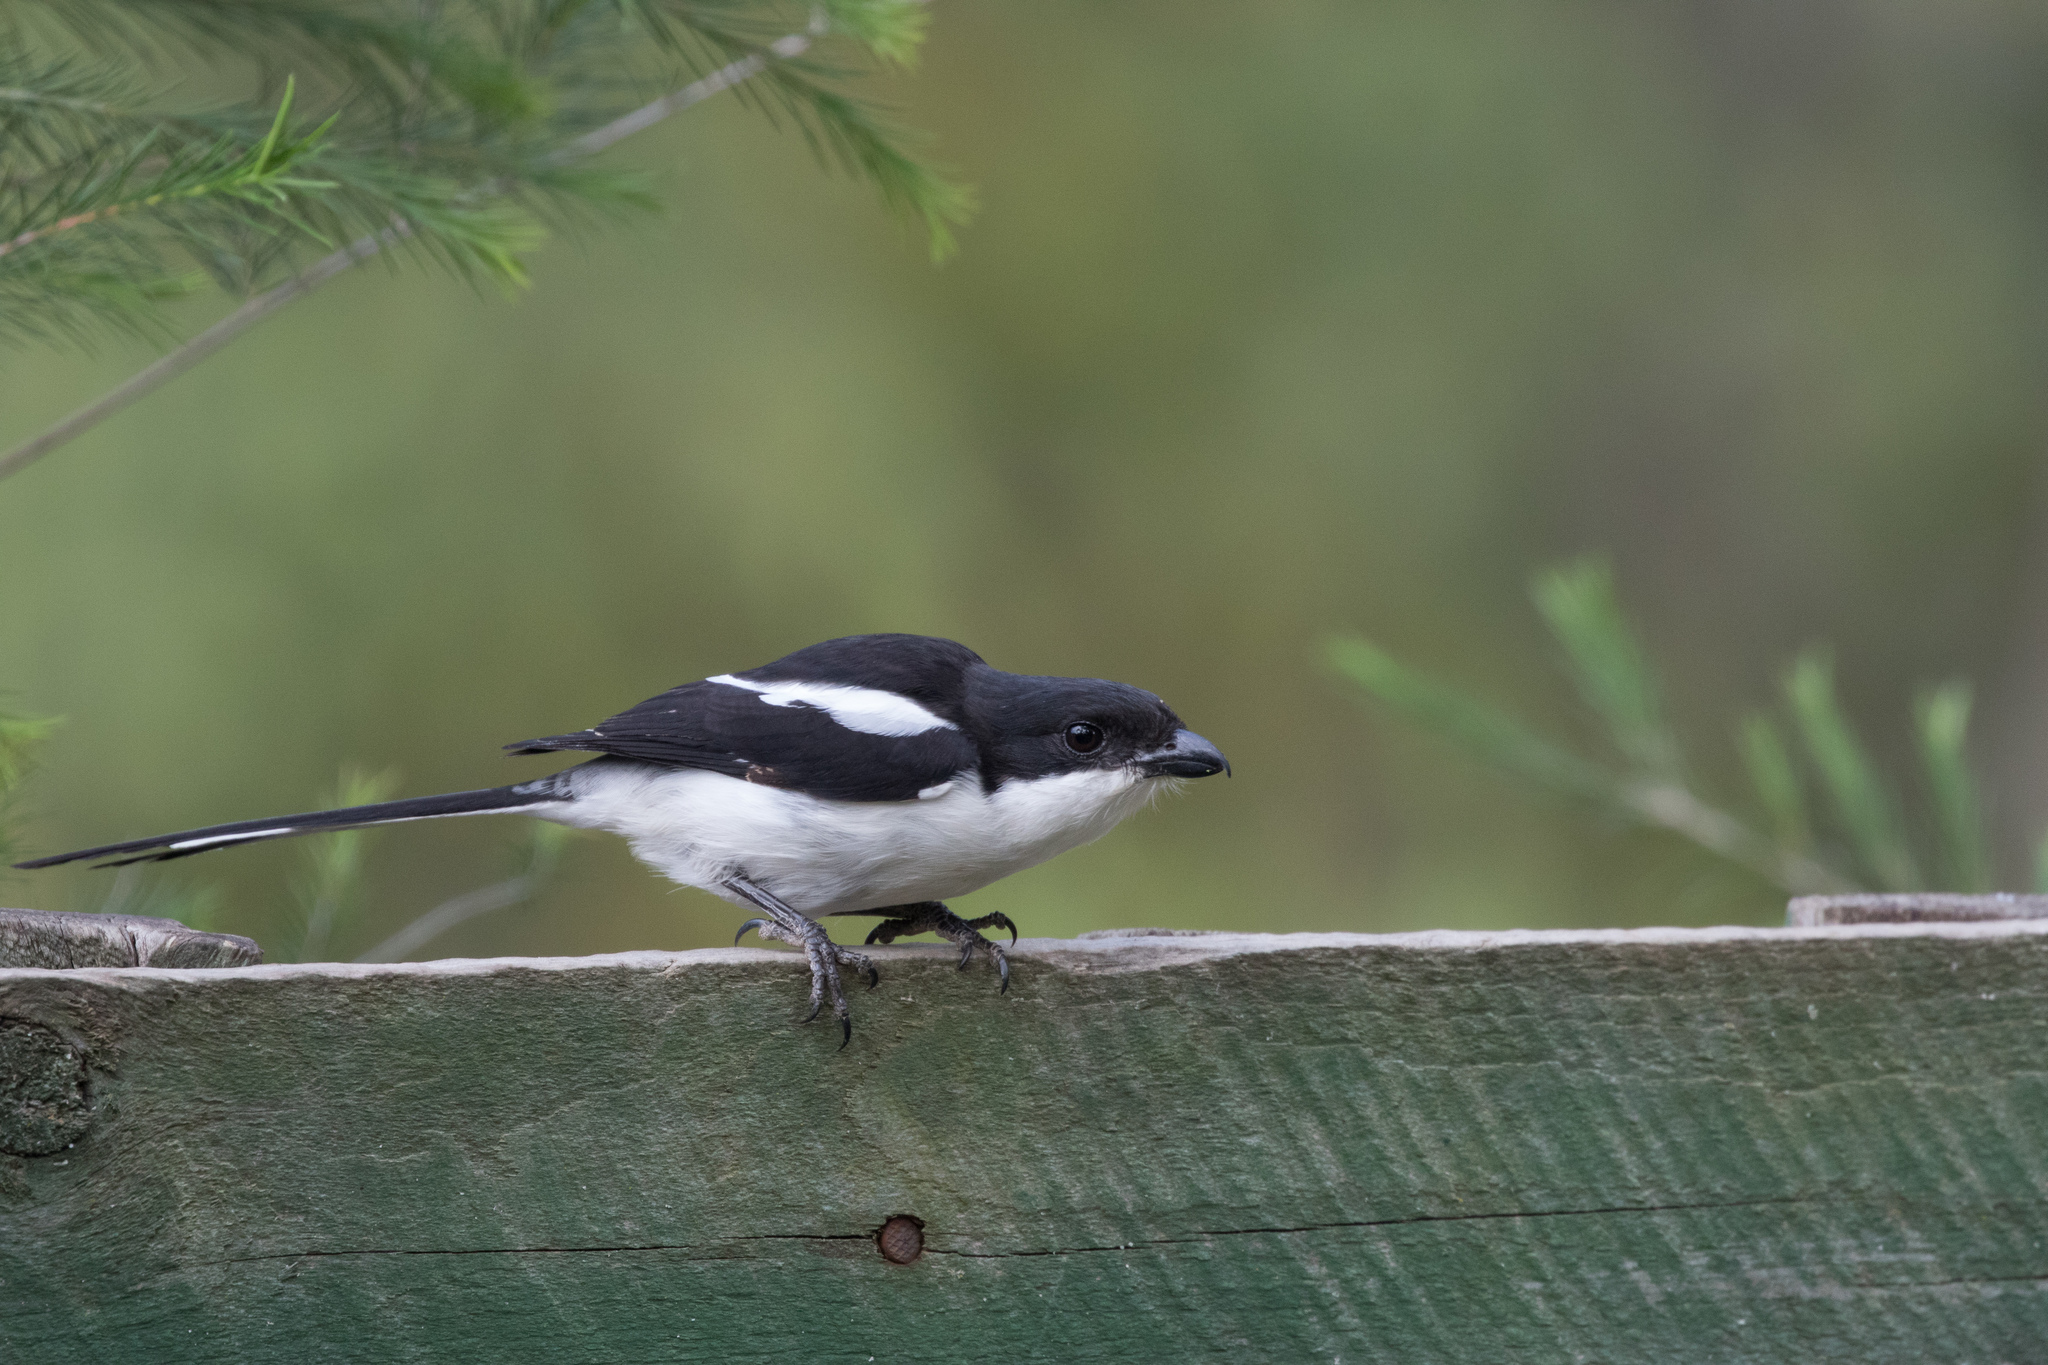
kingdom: Animalia
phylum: Chordata
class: Aves
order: Passeriformes
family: Laniidae
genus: Lanius
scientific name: Lanius humeralis
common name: Northern fiscal
